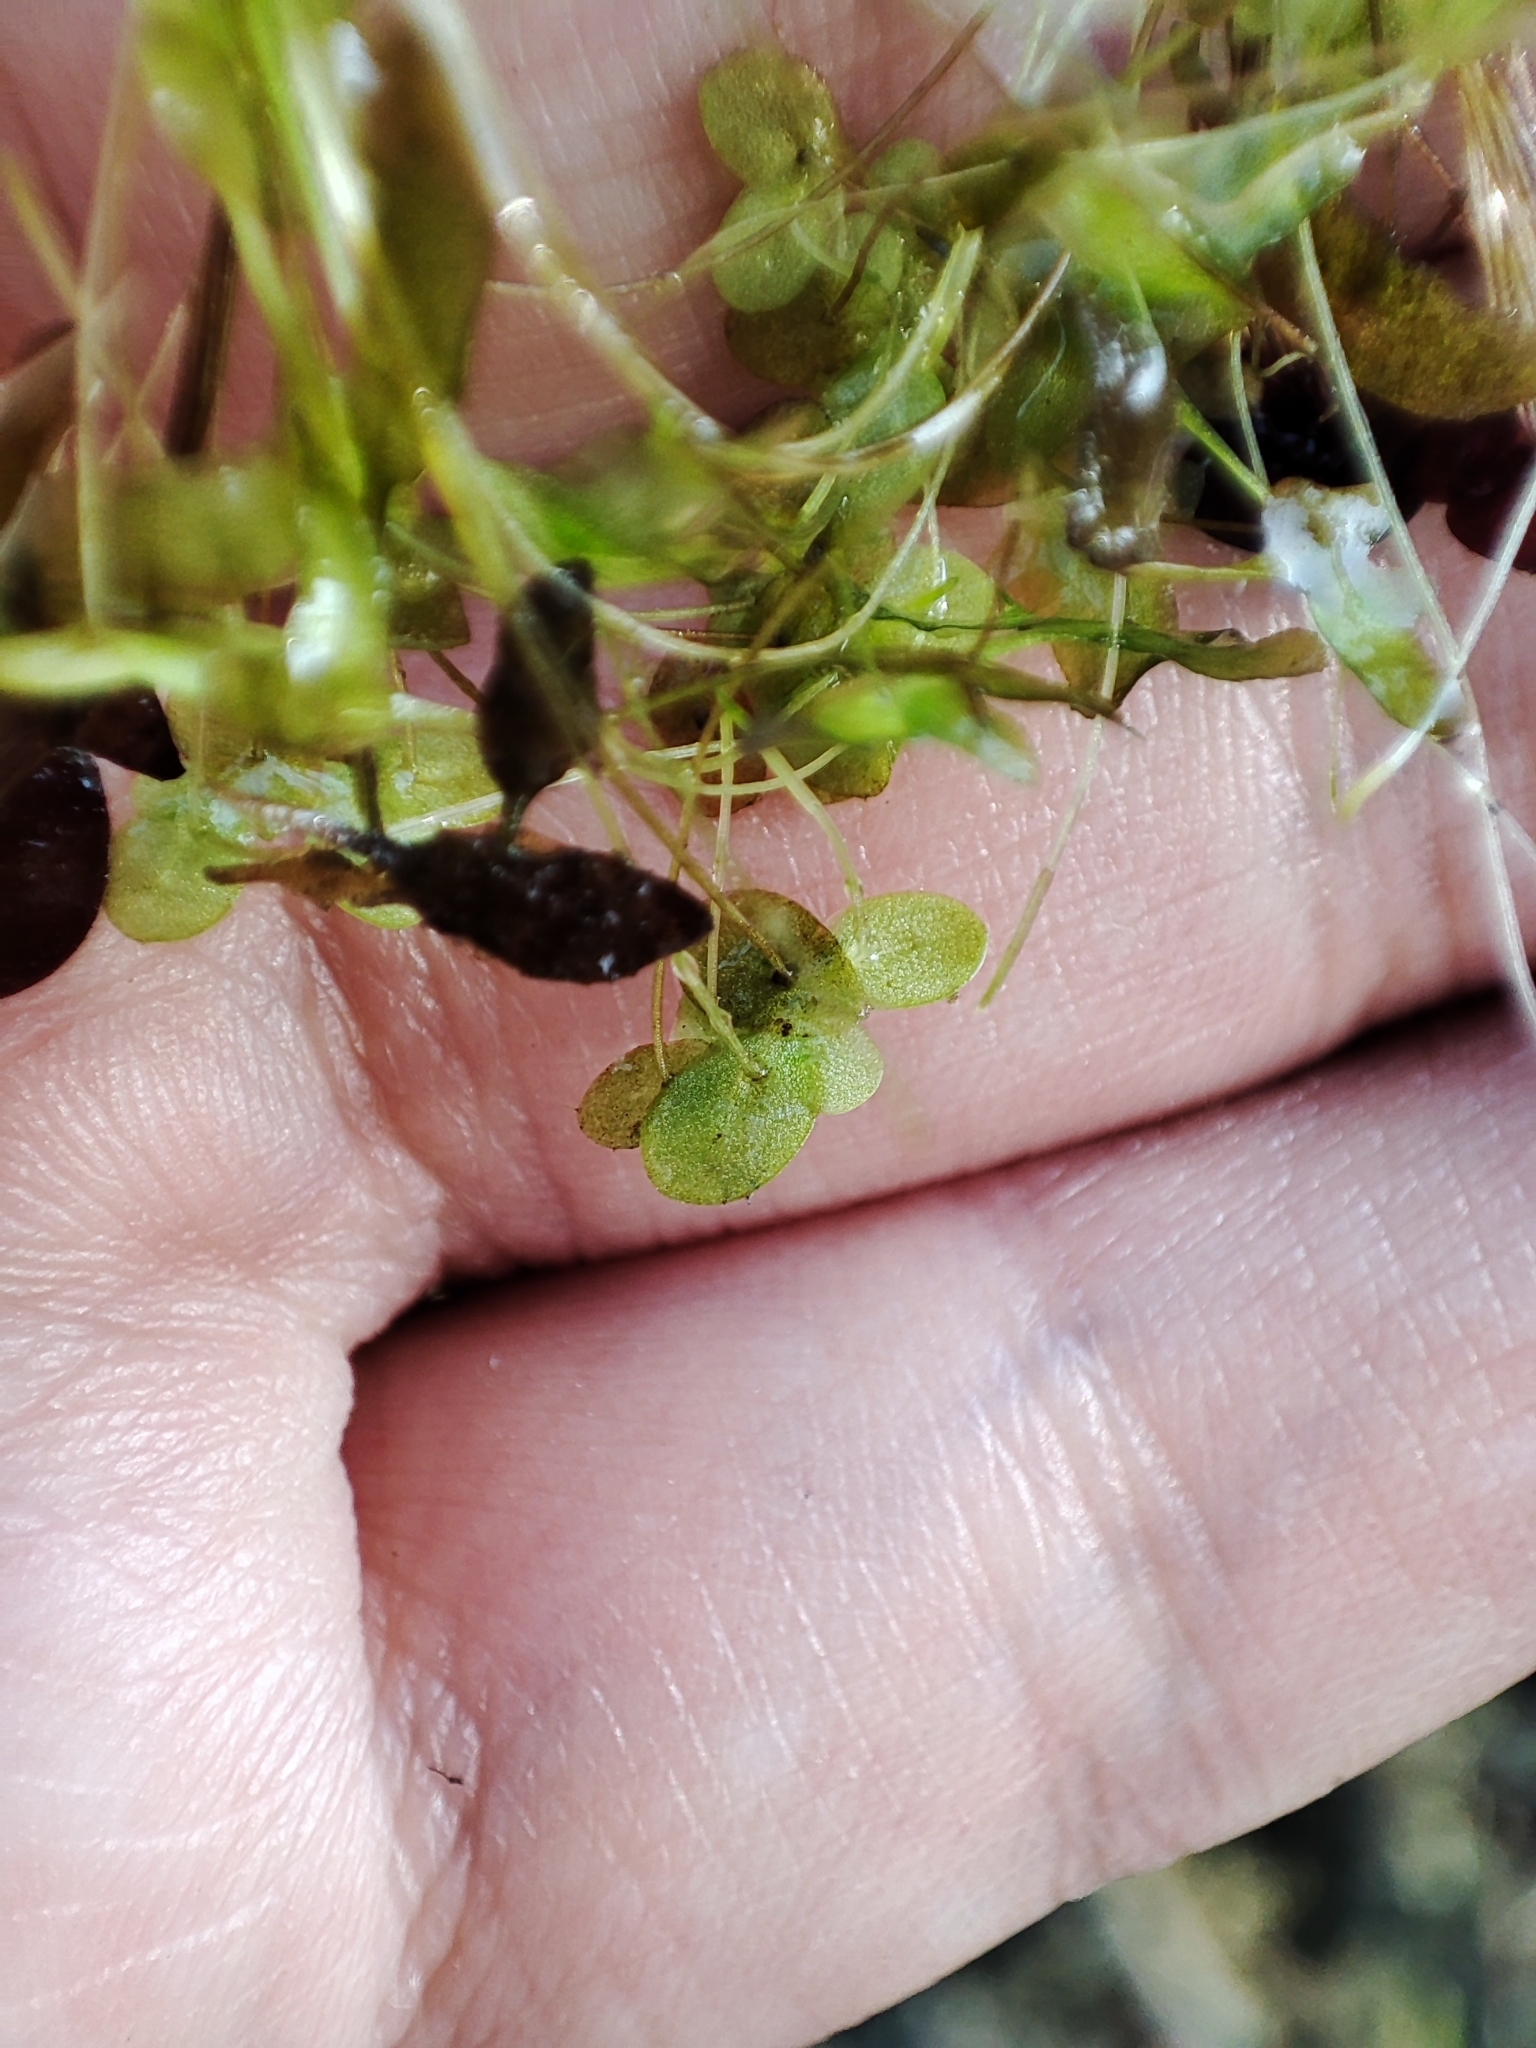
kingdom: Plantae
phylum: Tracheophyta
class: Liliopsida
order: Alismatales
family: Araceae
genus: Lemna
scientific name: Lemna minor
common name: Common duckweed
